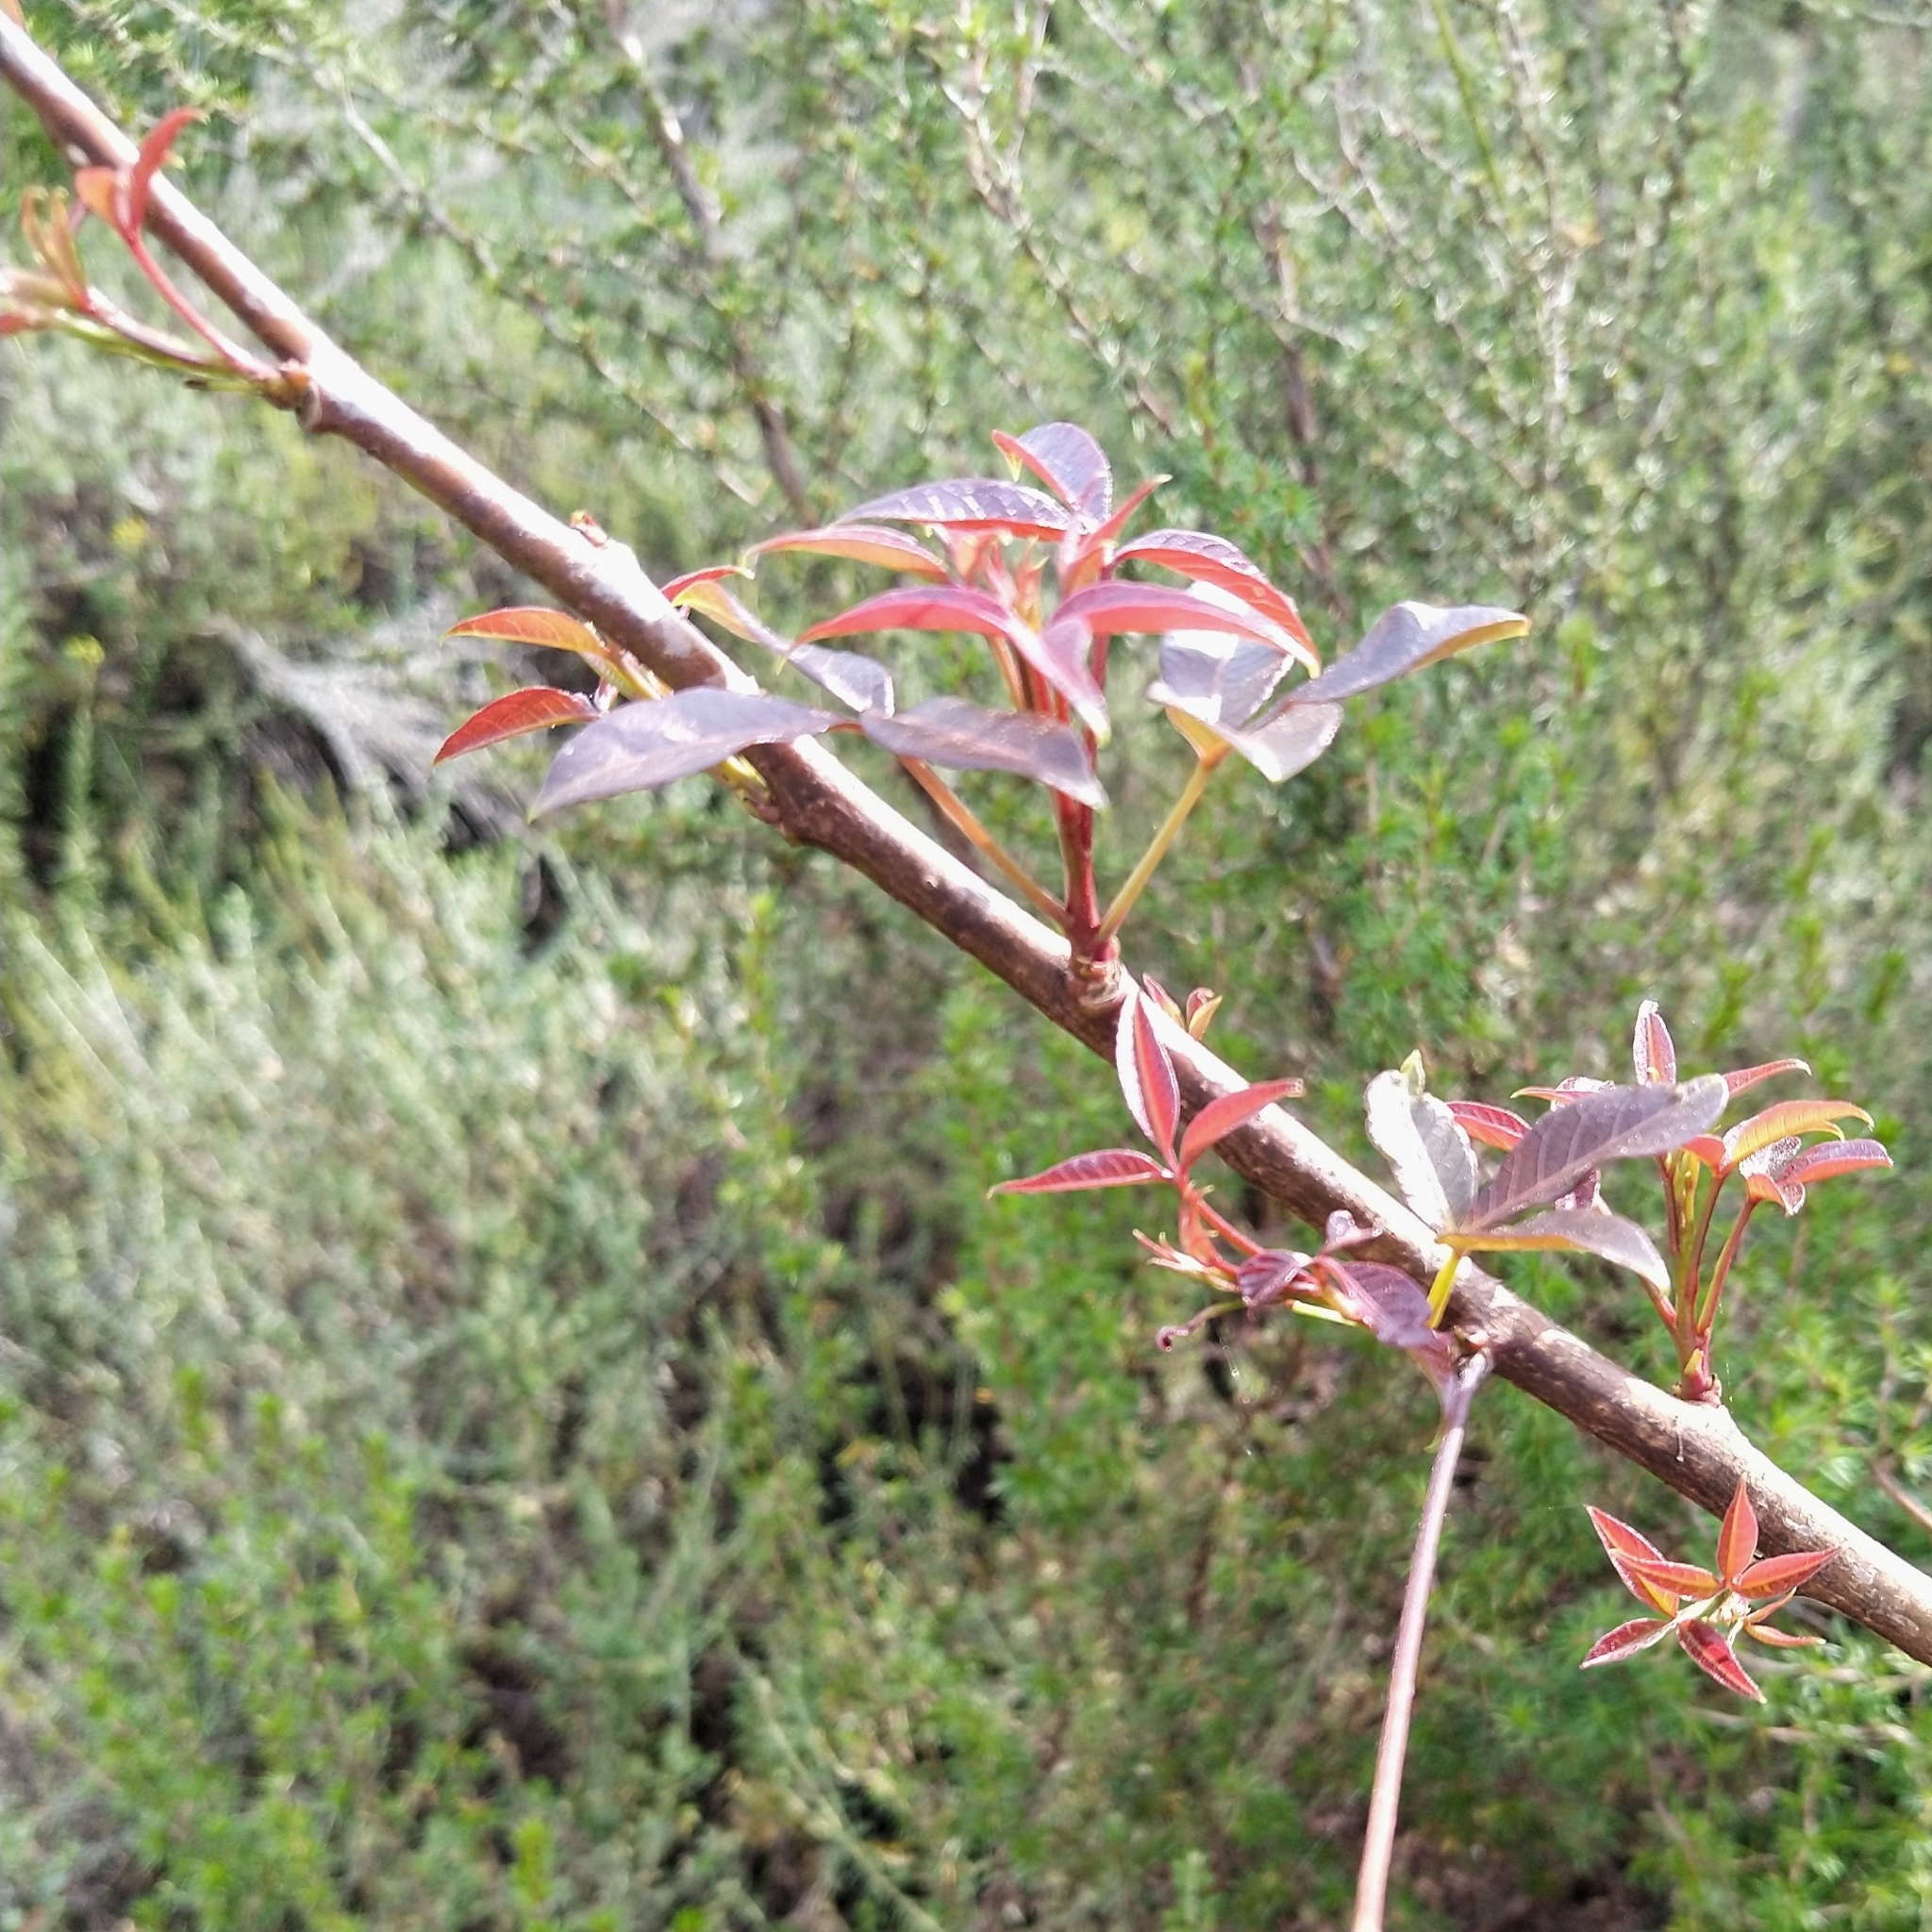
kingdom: Plantae
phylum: Tracheophyta
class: Magnoliopsida
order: Sapindales
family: Anacardiaceae
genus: Searsia
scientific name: Searsia chirindensis
